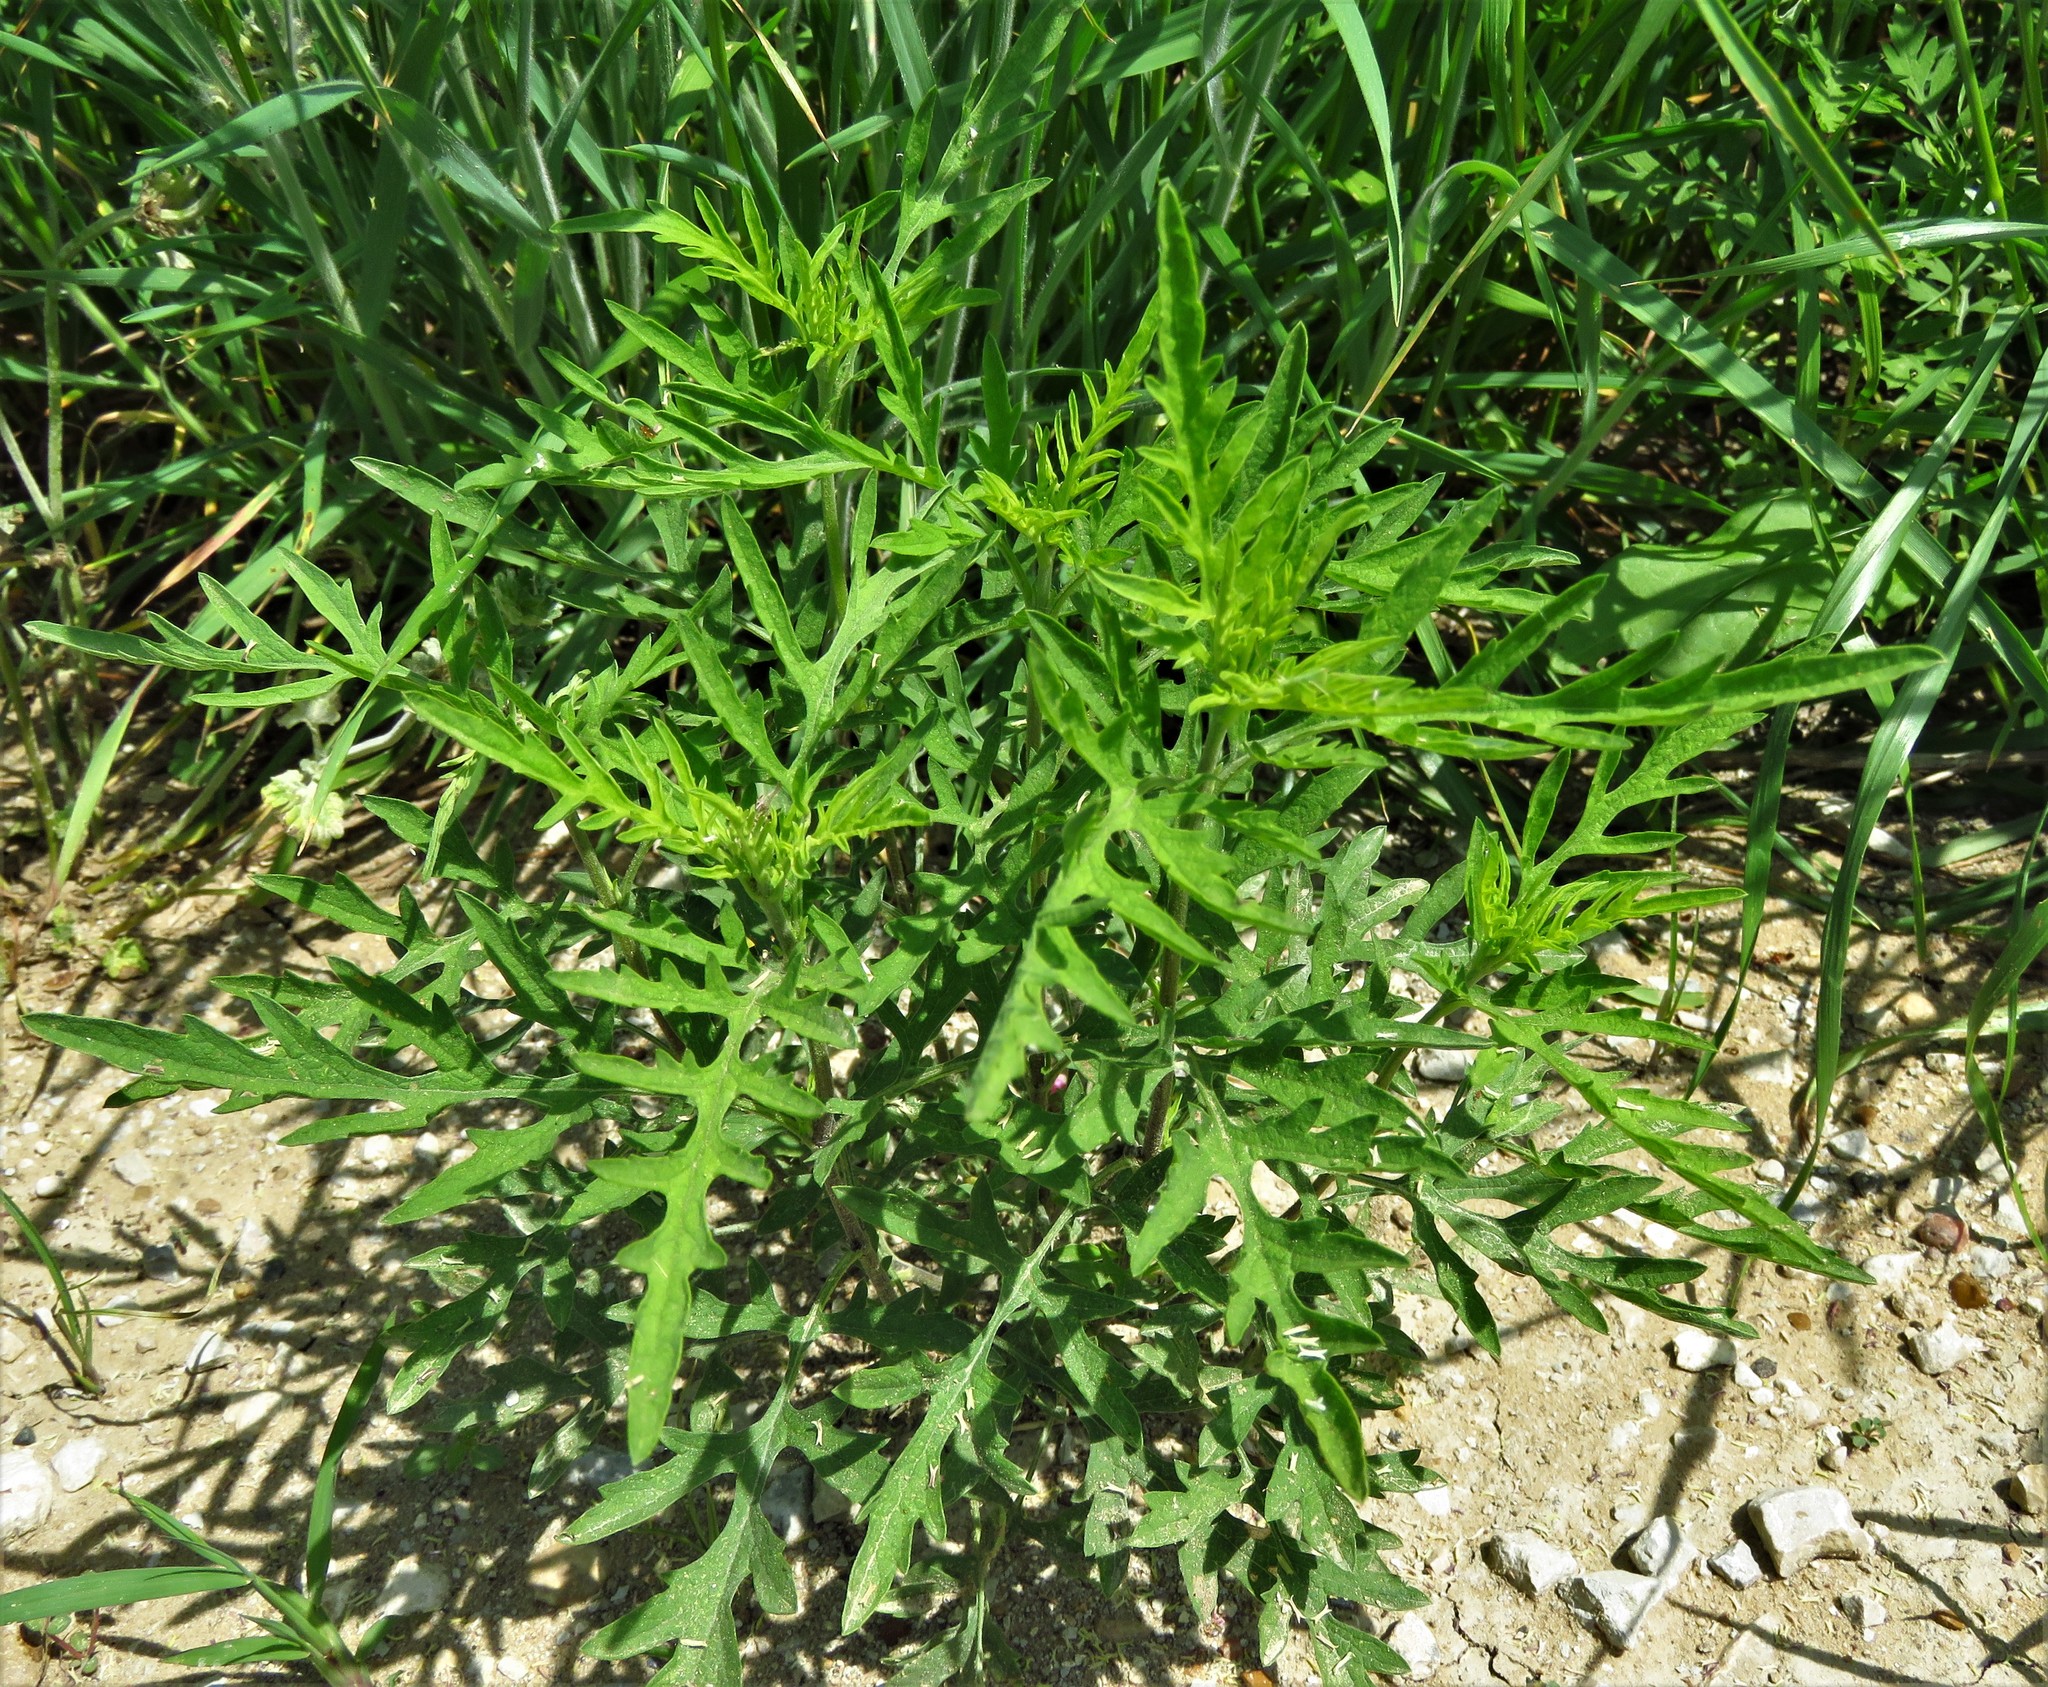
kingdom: Plantae
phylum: Tracheophyta
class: Magnoliopsida
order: Asterales
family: Asteraceae
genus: Ambrosia
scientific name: Ambrosia psilostachya
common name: Perennial ragweed
